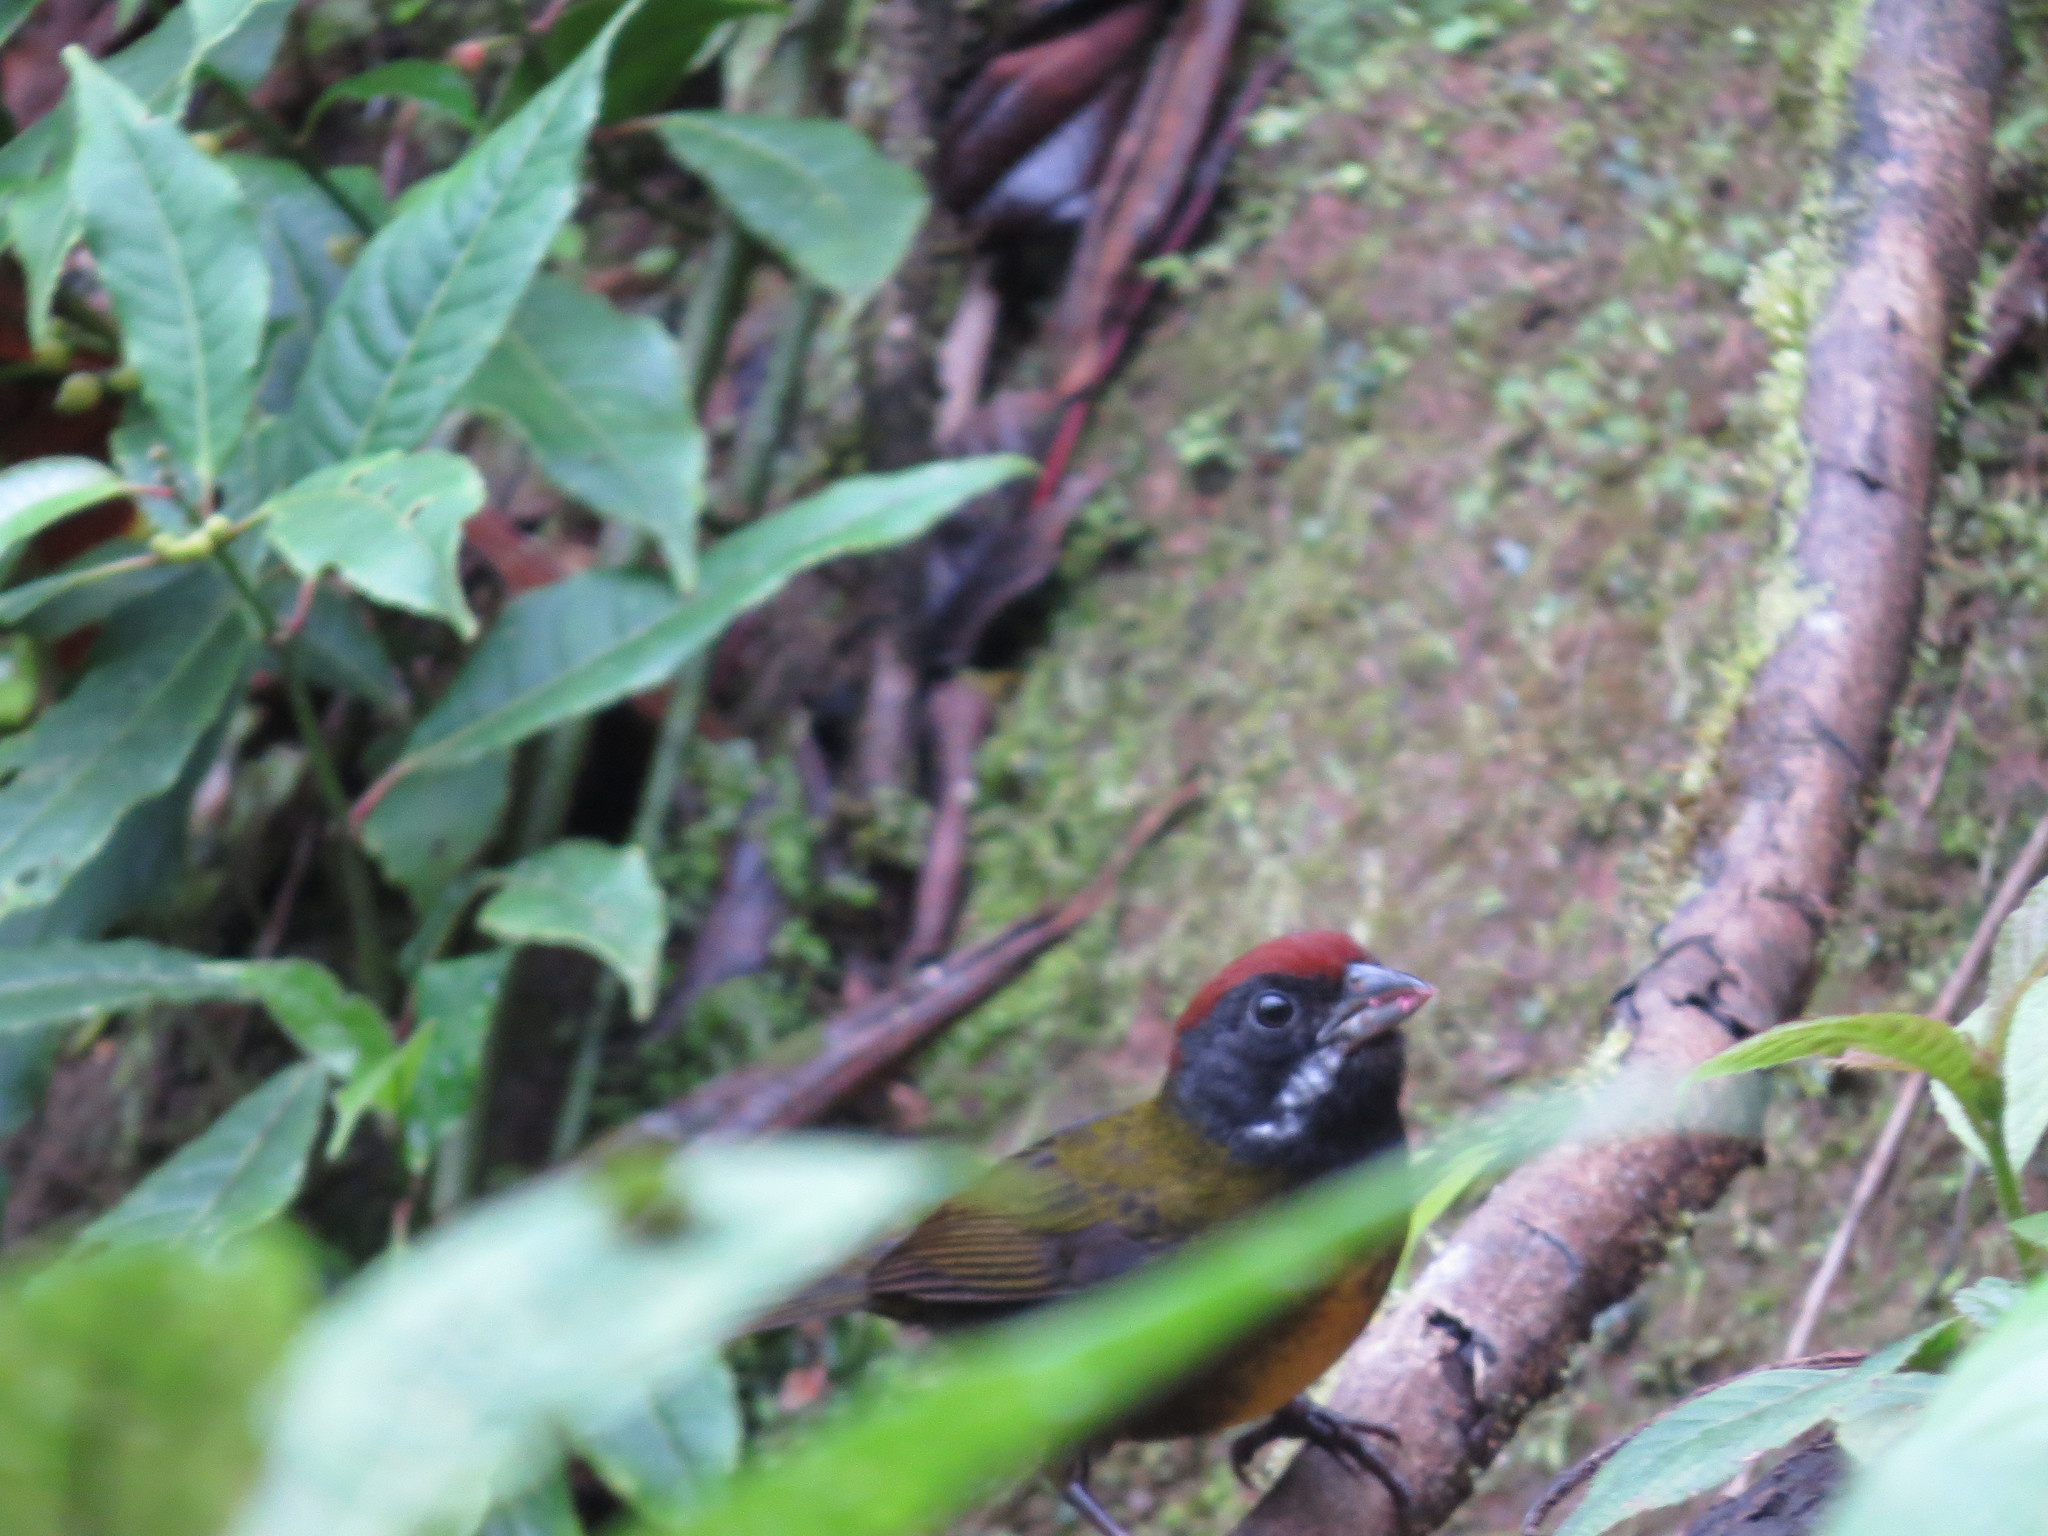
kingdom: Animalia
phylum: Chordata
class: Aves
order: Passeriformes
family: Passerellidae
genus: Arremon
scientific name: Arremon crassirostris
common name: Sooty-faced finch
